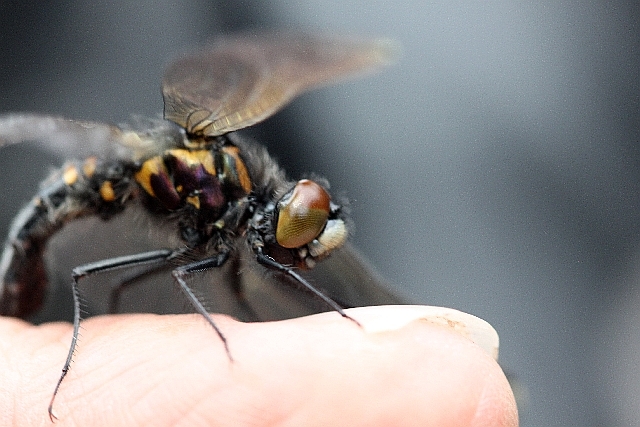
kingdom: Animalia
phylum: Arthropoda
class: Insecta
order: Odonata
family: Libellulidae
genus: Leucorrhinia
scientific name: Leucorrhinia caudalis
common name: Lilypad whiteface
